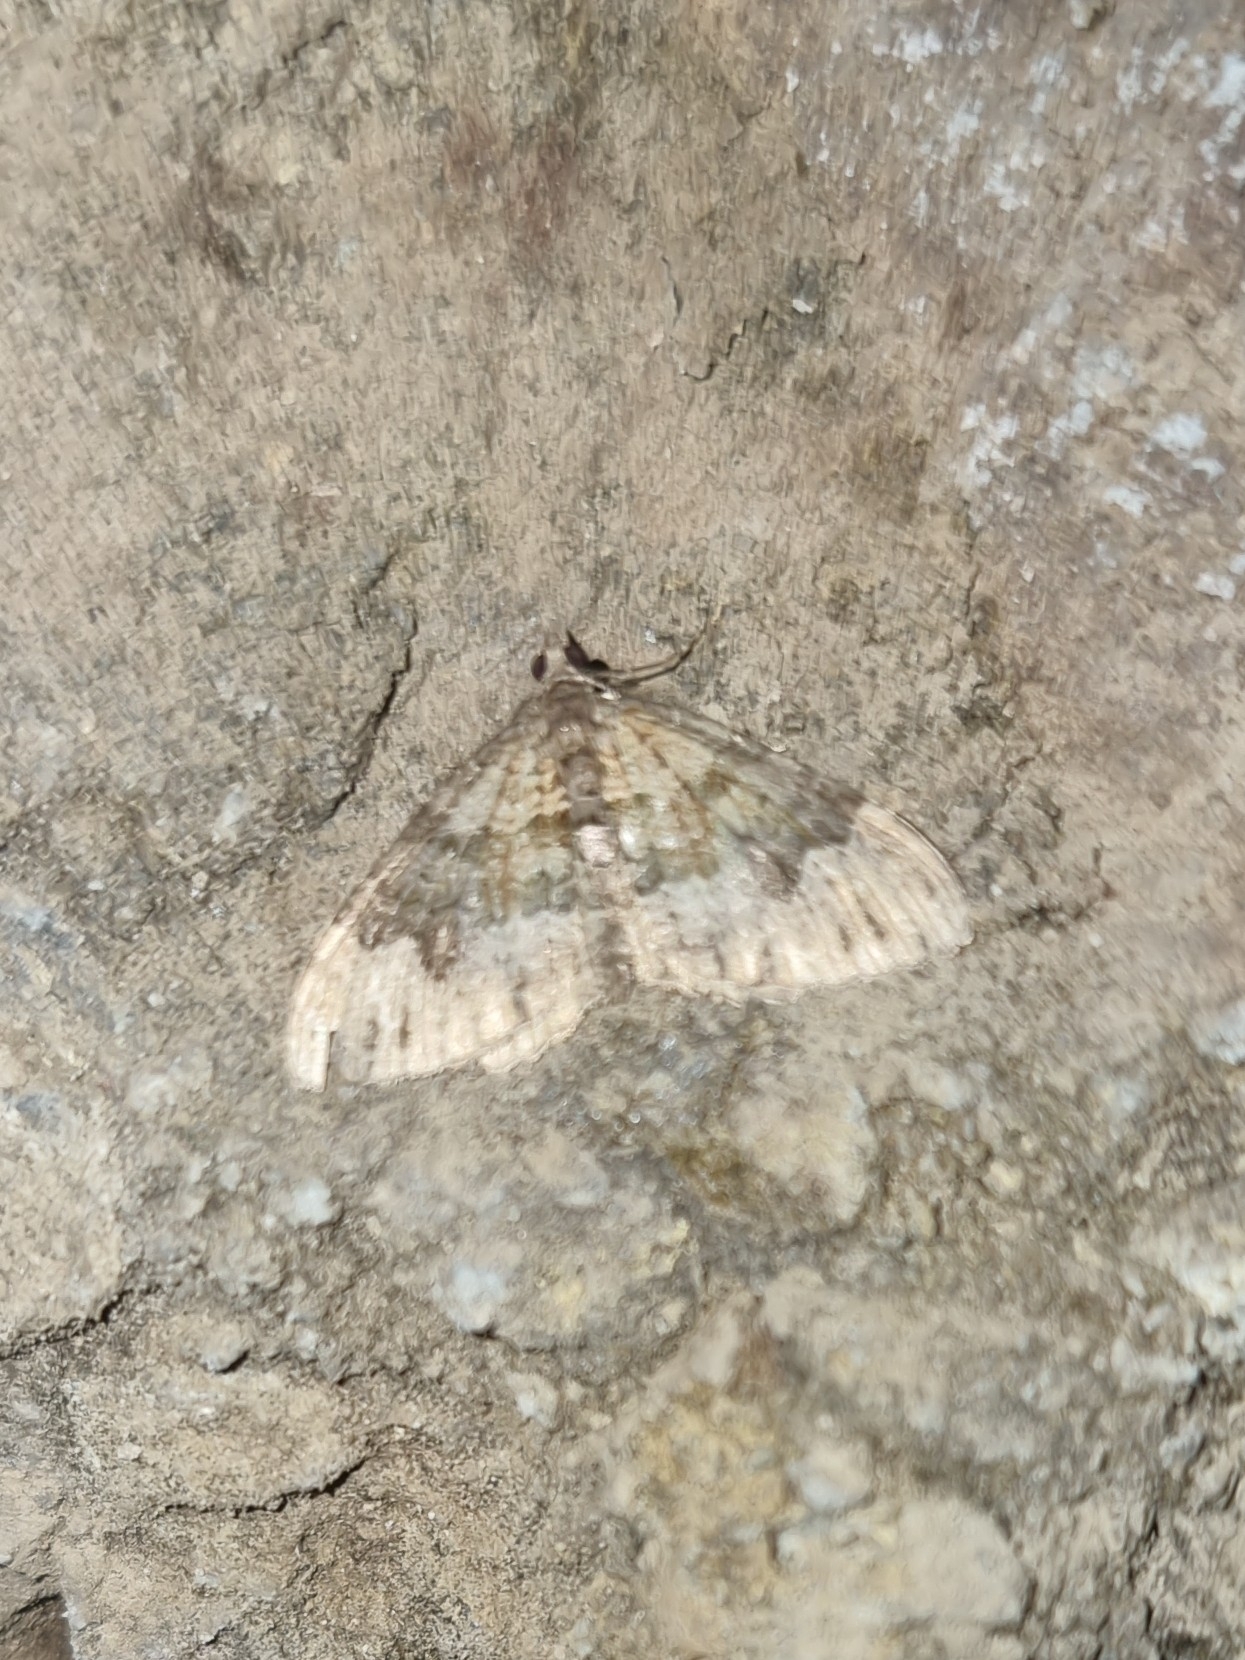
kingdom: Animalia
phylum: Arthropoda
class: Insecta
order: Lepidoptera
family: Geometridae
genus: Xanthorhoe
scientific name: Xanthorhoe rupicola
